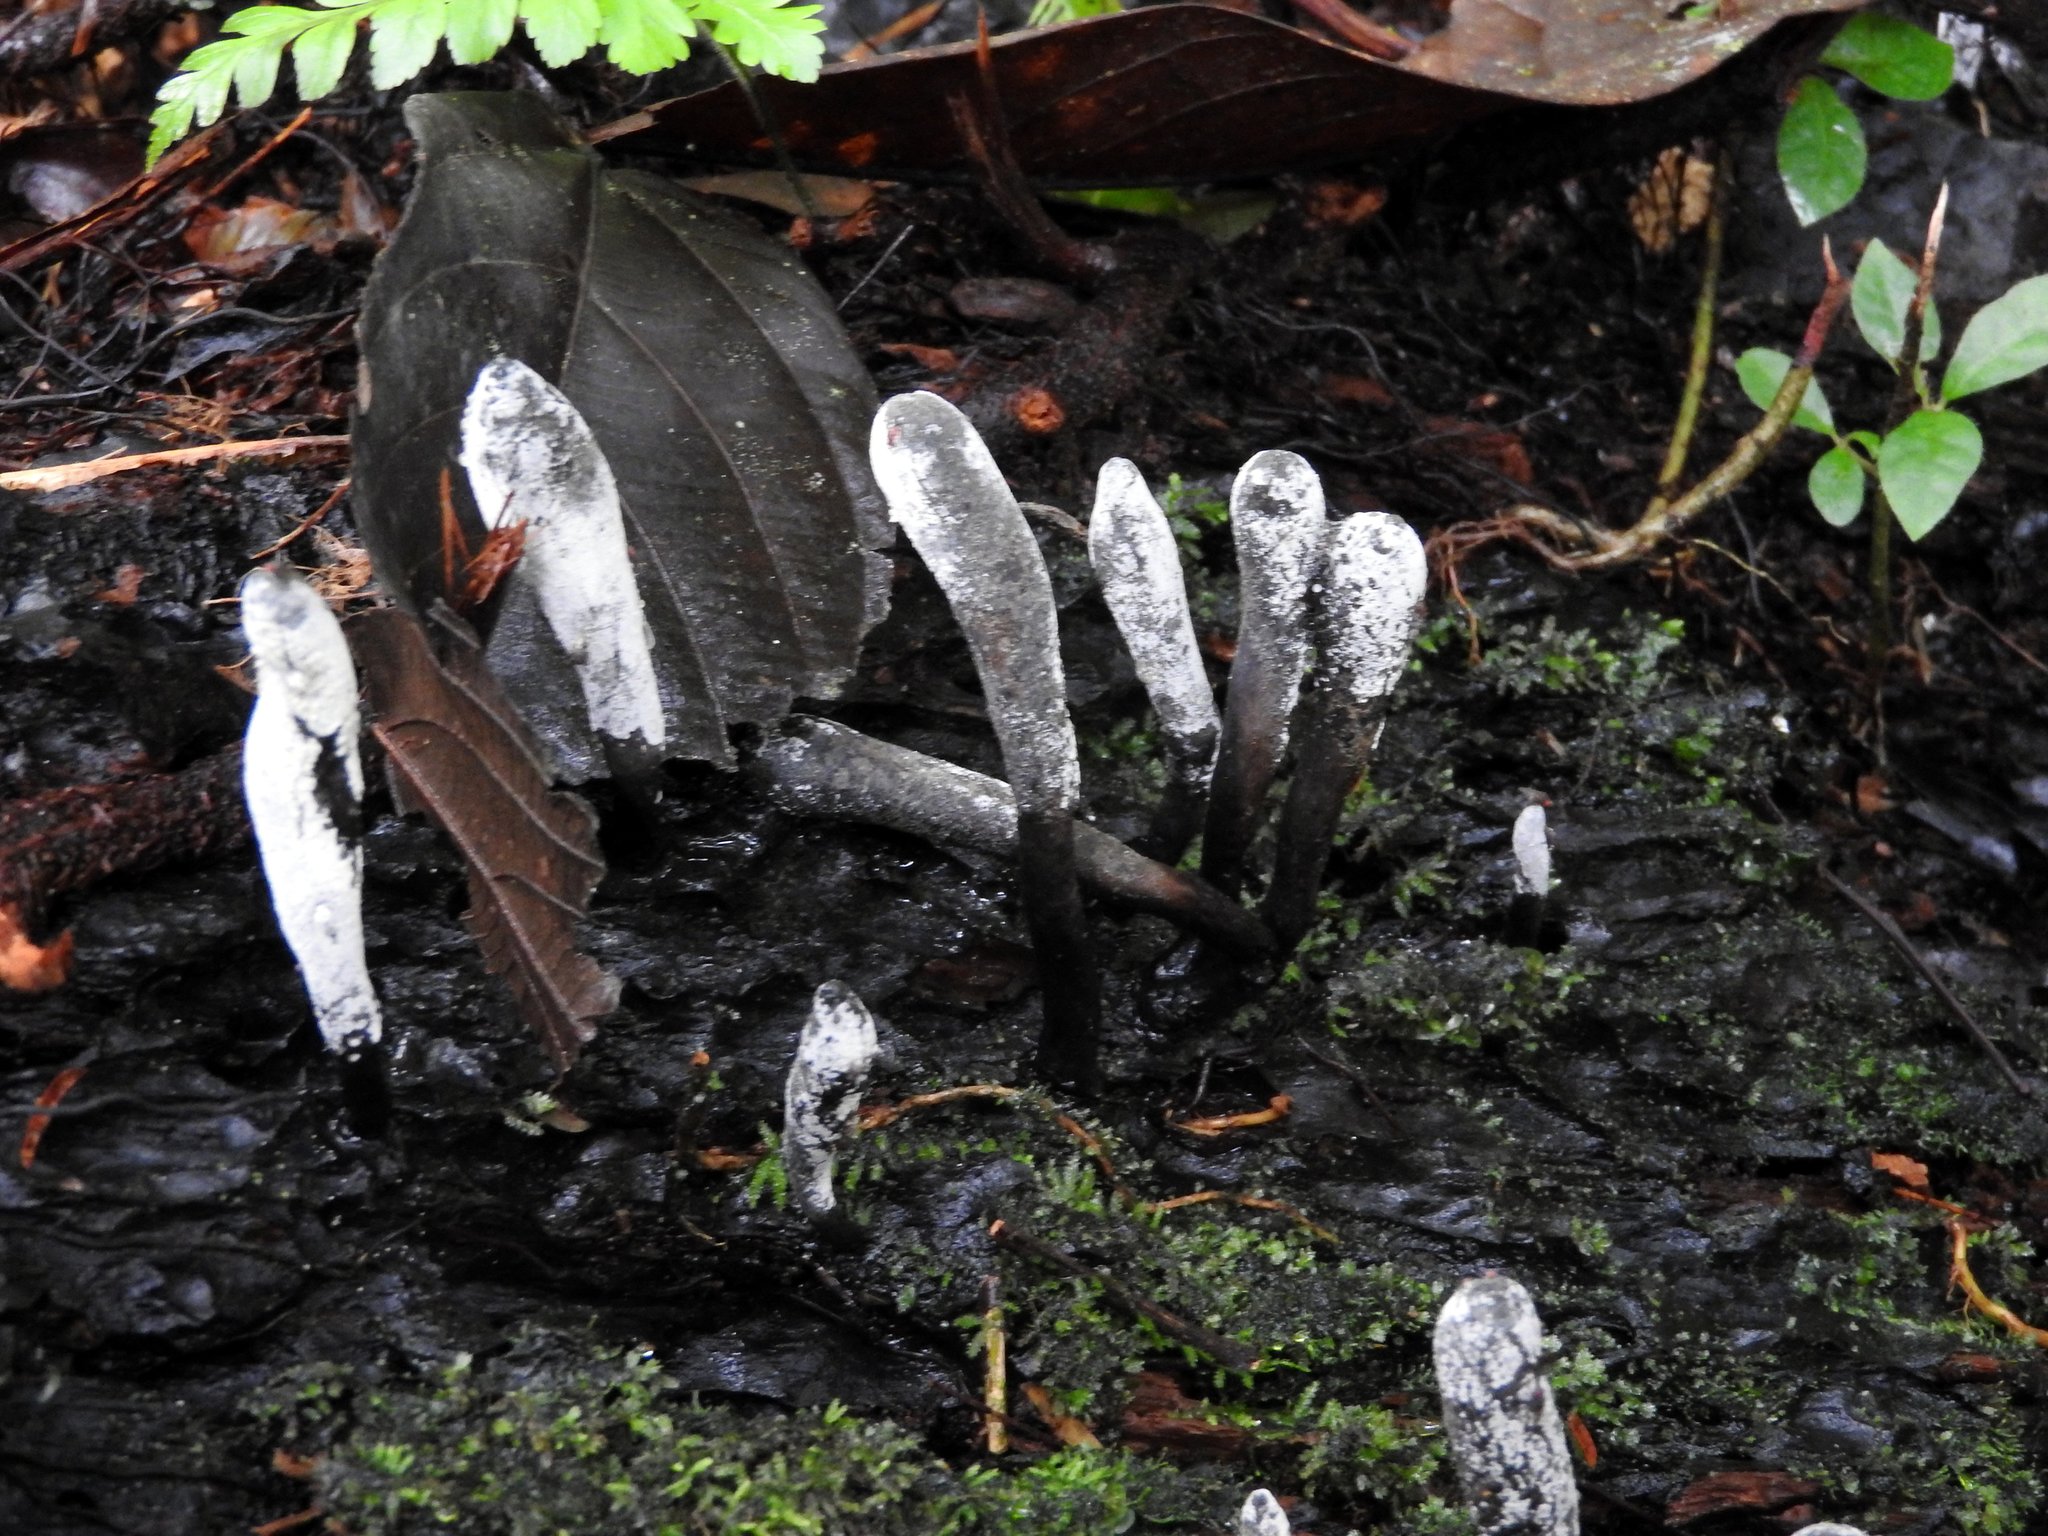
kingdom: Fungi
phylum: Ascomycota
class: Sordariomycetes
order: Xylariales
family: Xylariaceae
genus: Xylaria
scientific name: Xylaria polymorpha
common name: Dead man's fingers
